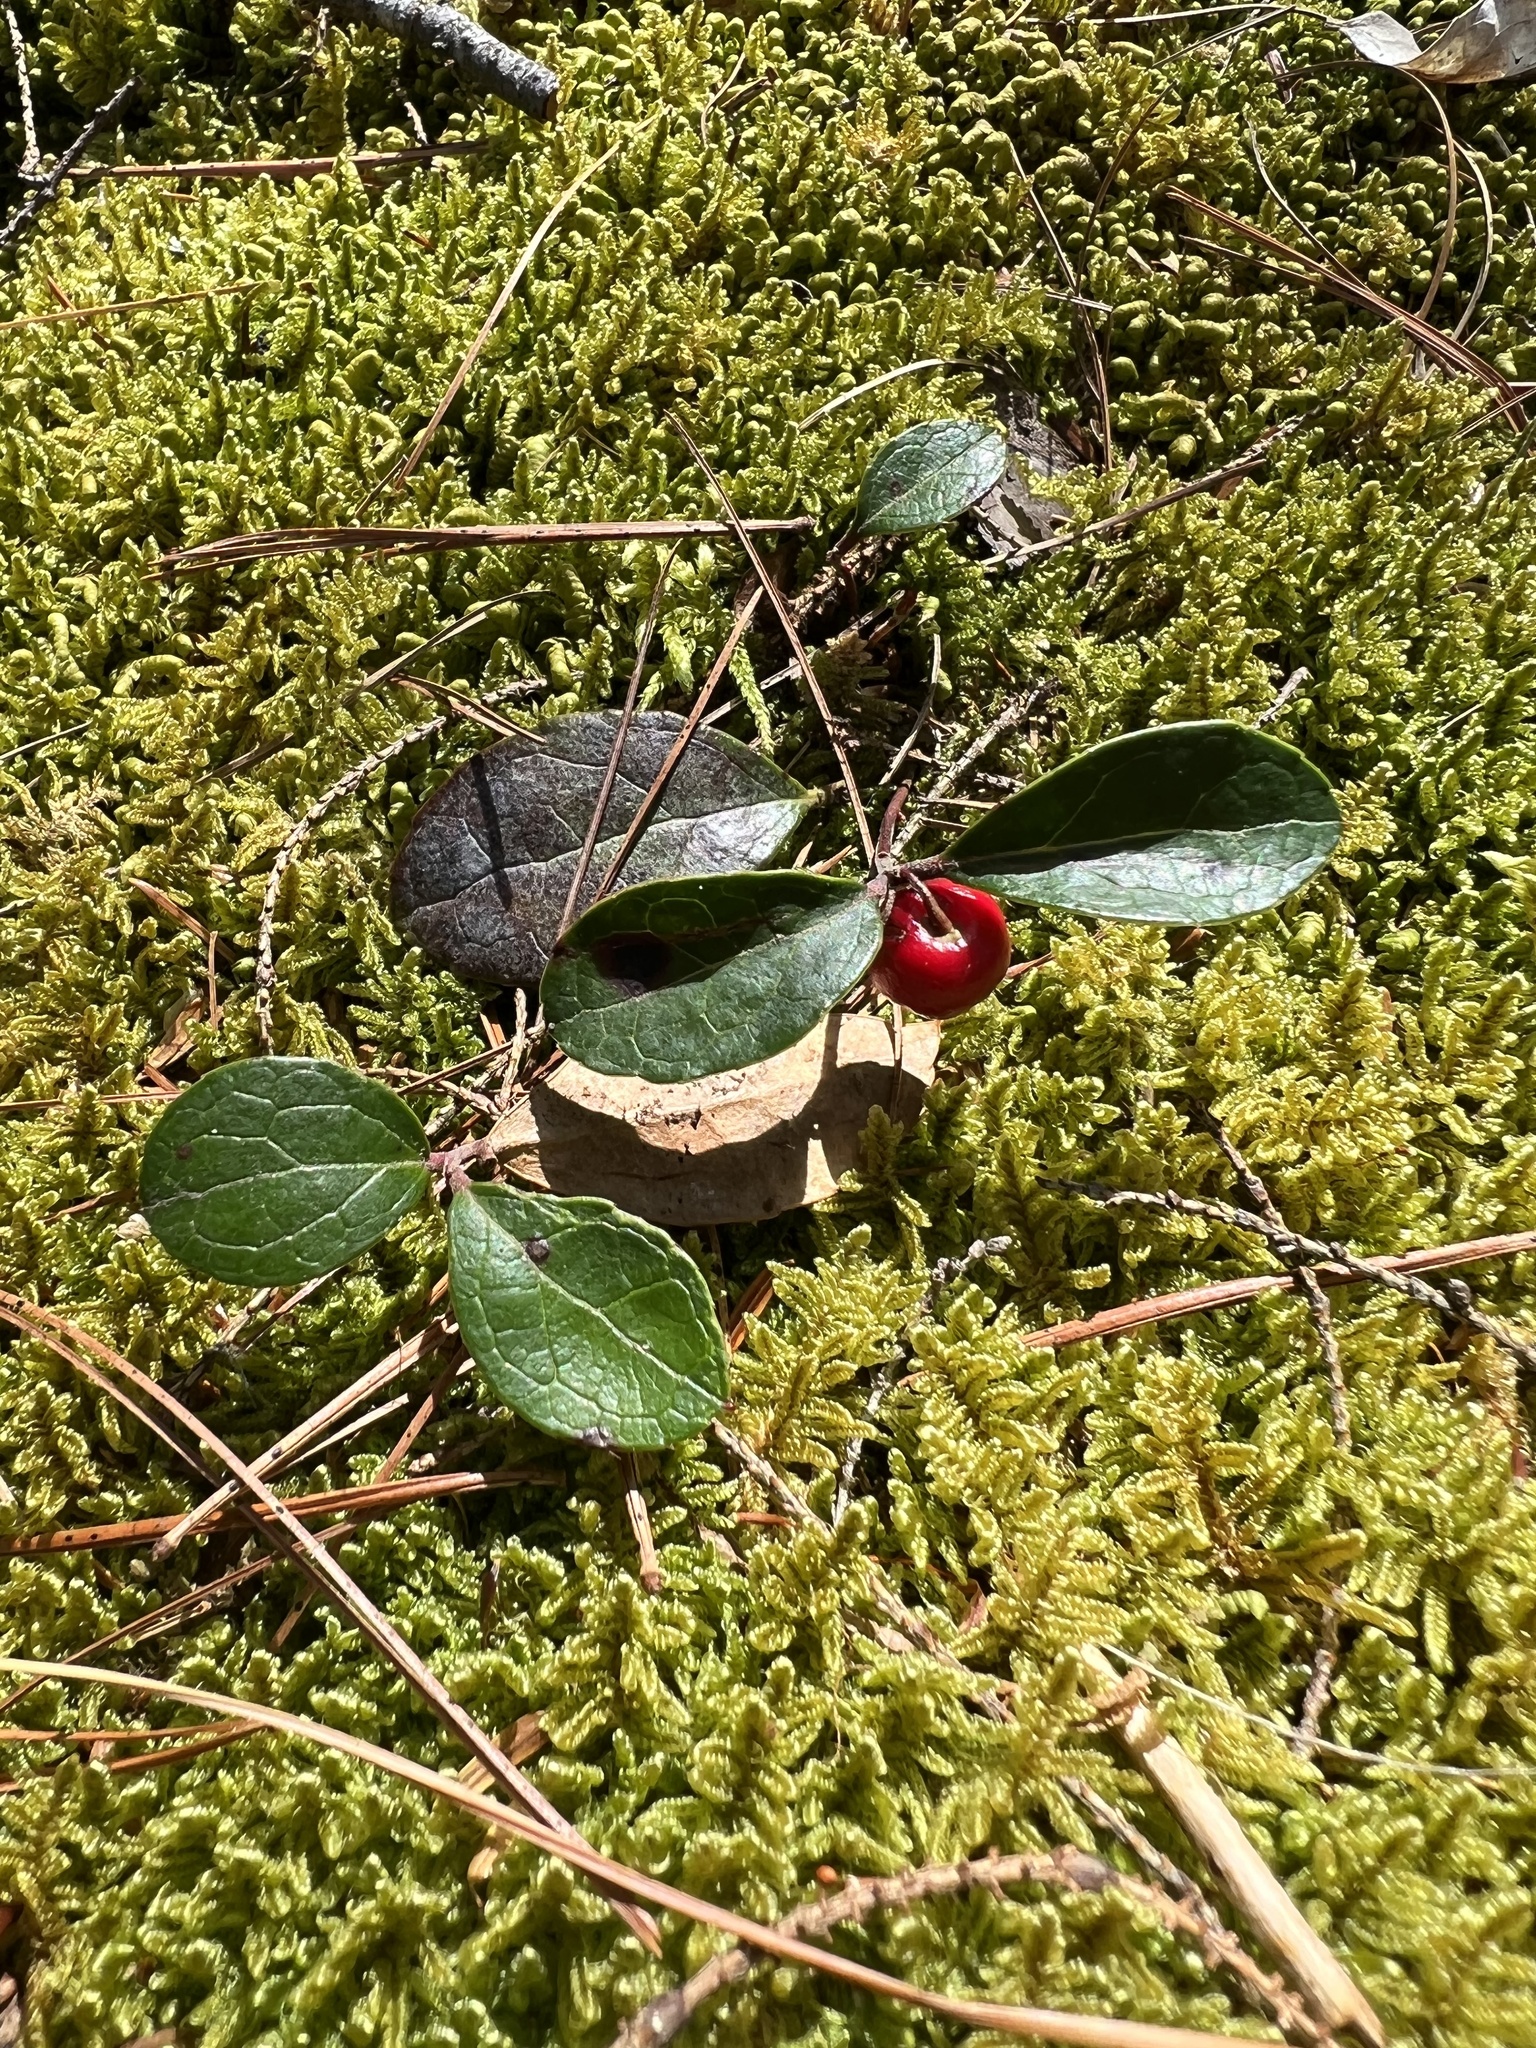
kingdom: Plantae
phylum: Tracheophyta
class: Magnoliopsida
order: Ericales
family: Ericaceae
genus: Gaultheria
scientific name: Gaultheria procumbens
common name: Checkerberry
